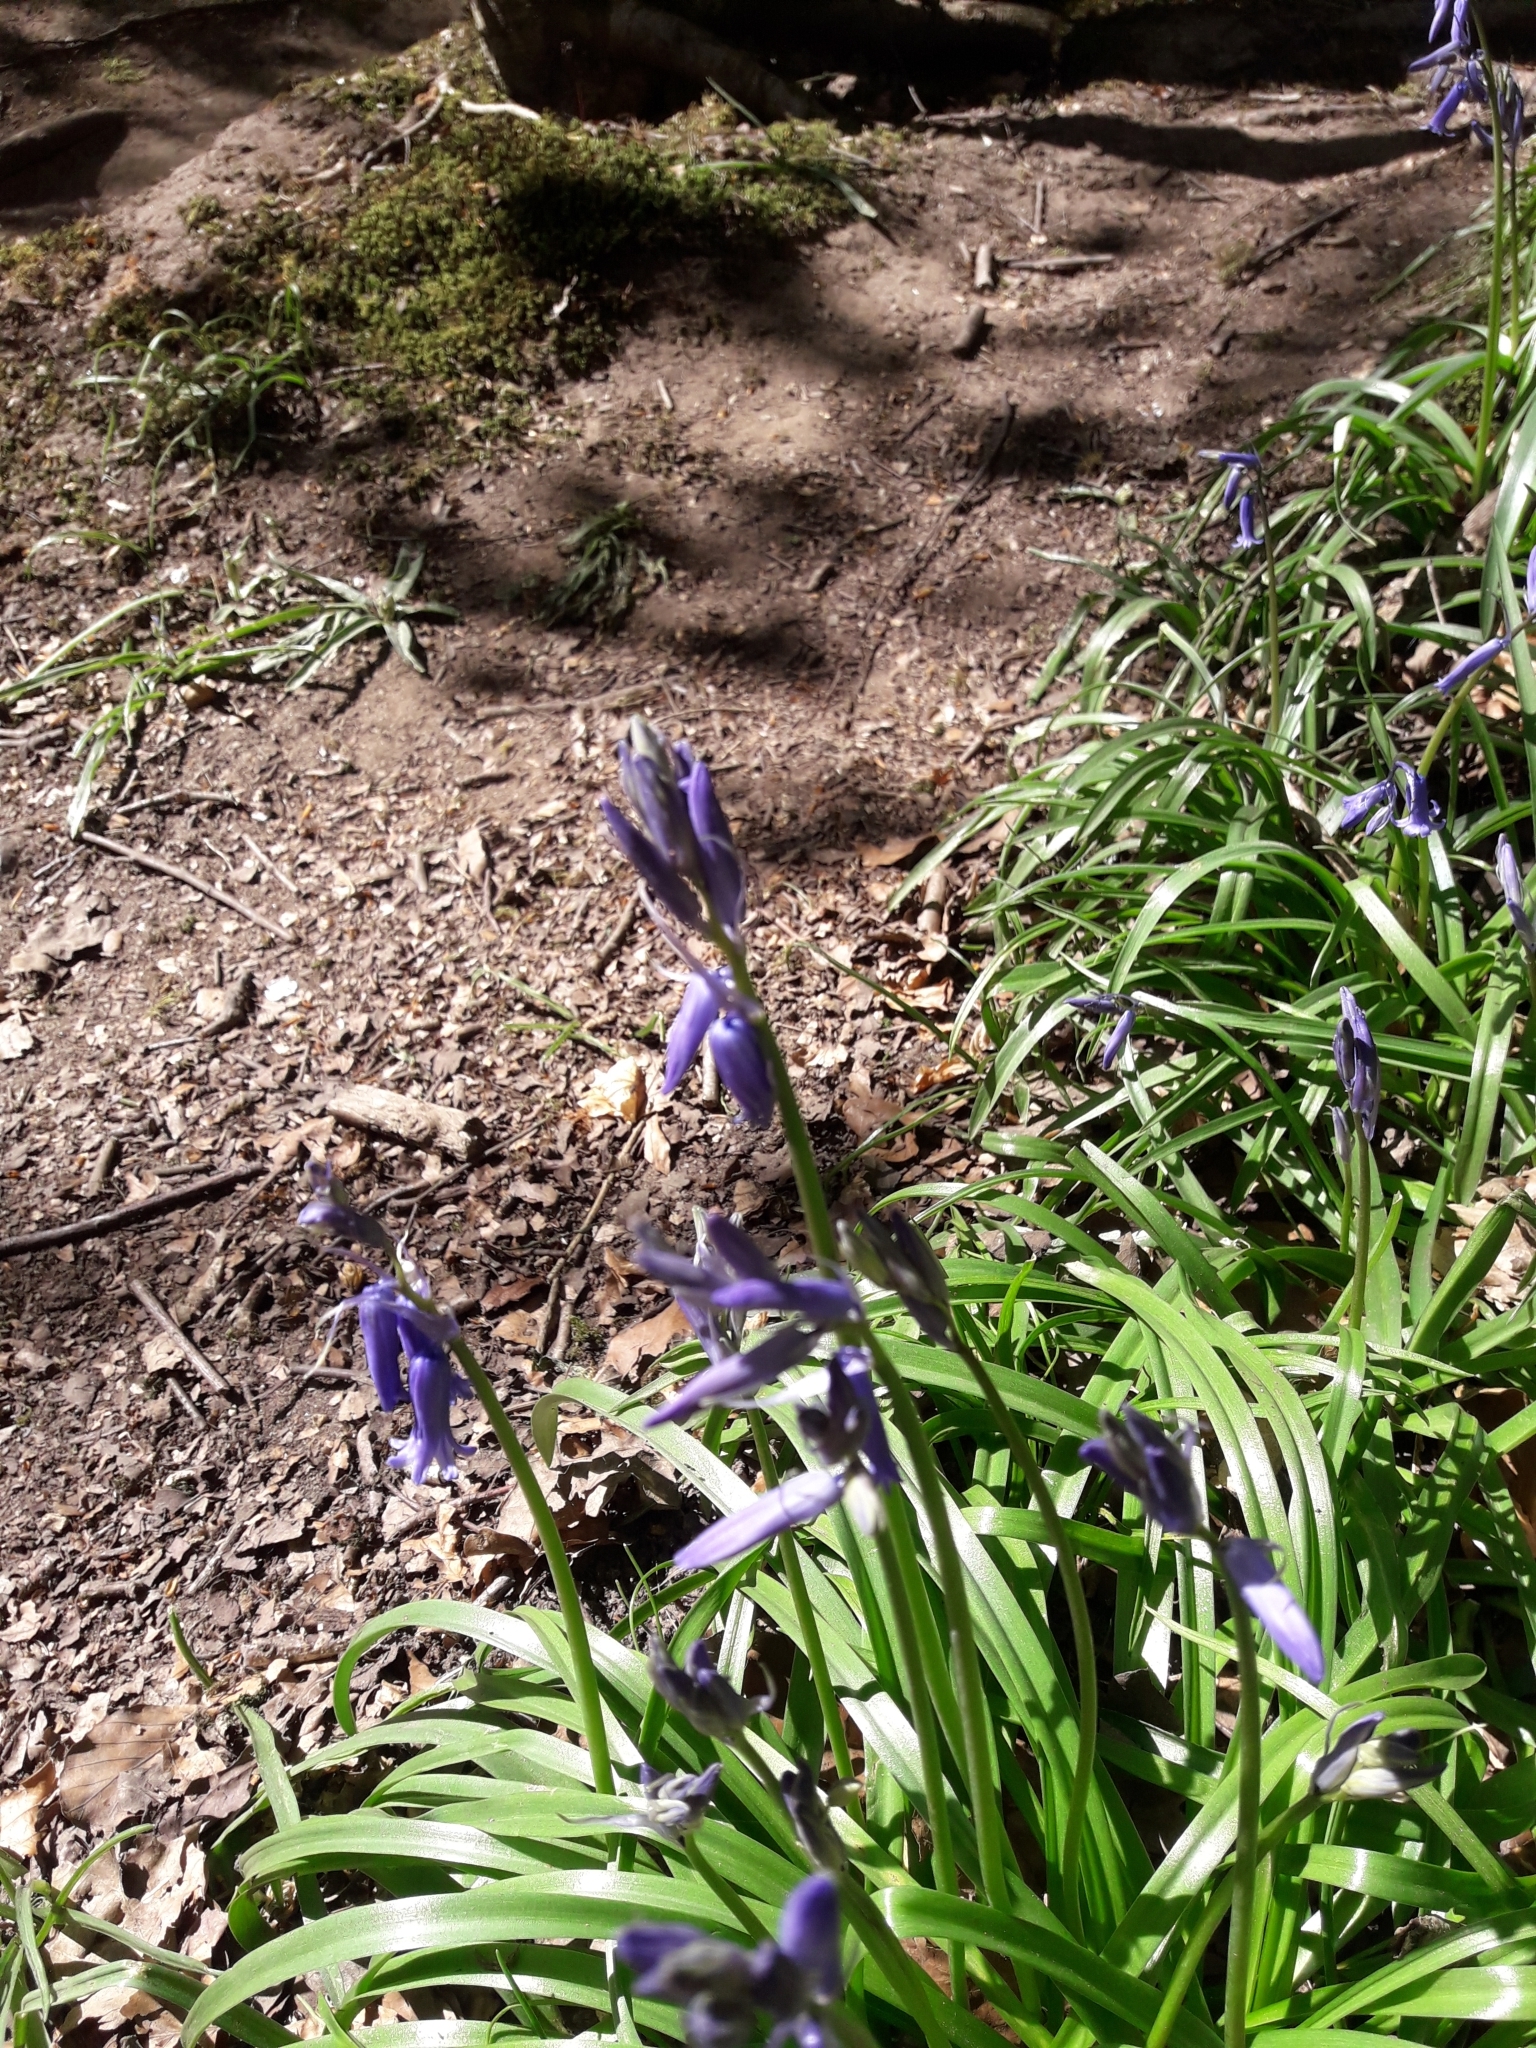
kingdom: Plantae
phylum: Tracheophyta
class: Liliopsida
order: Asparagales
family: Asparagaceae
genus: Hyacinthoides
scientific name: Hyacinthoides non-scripta
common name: Bluebell
